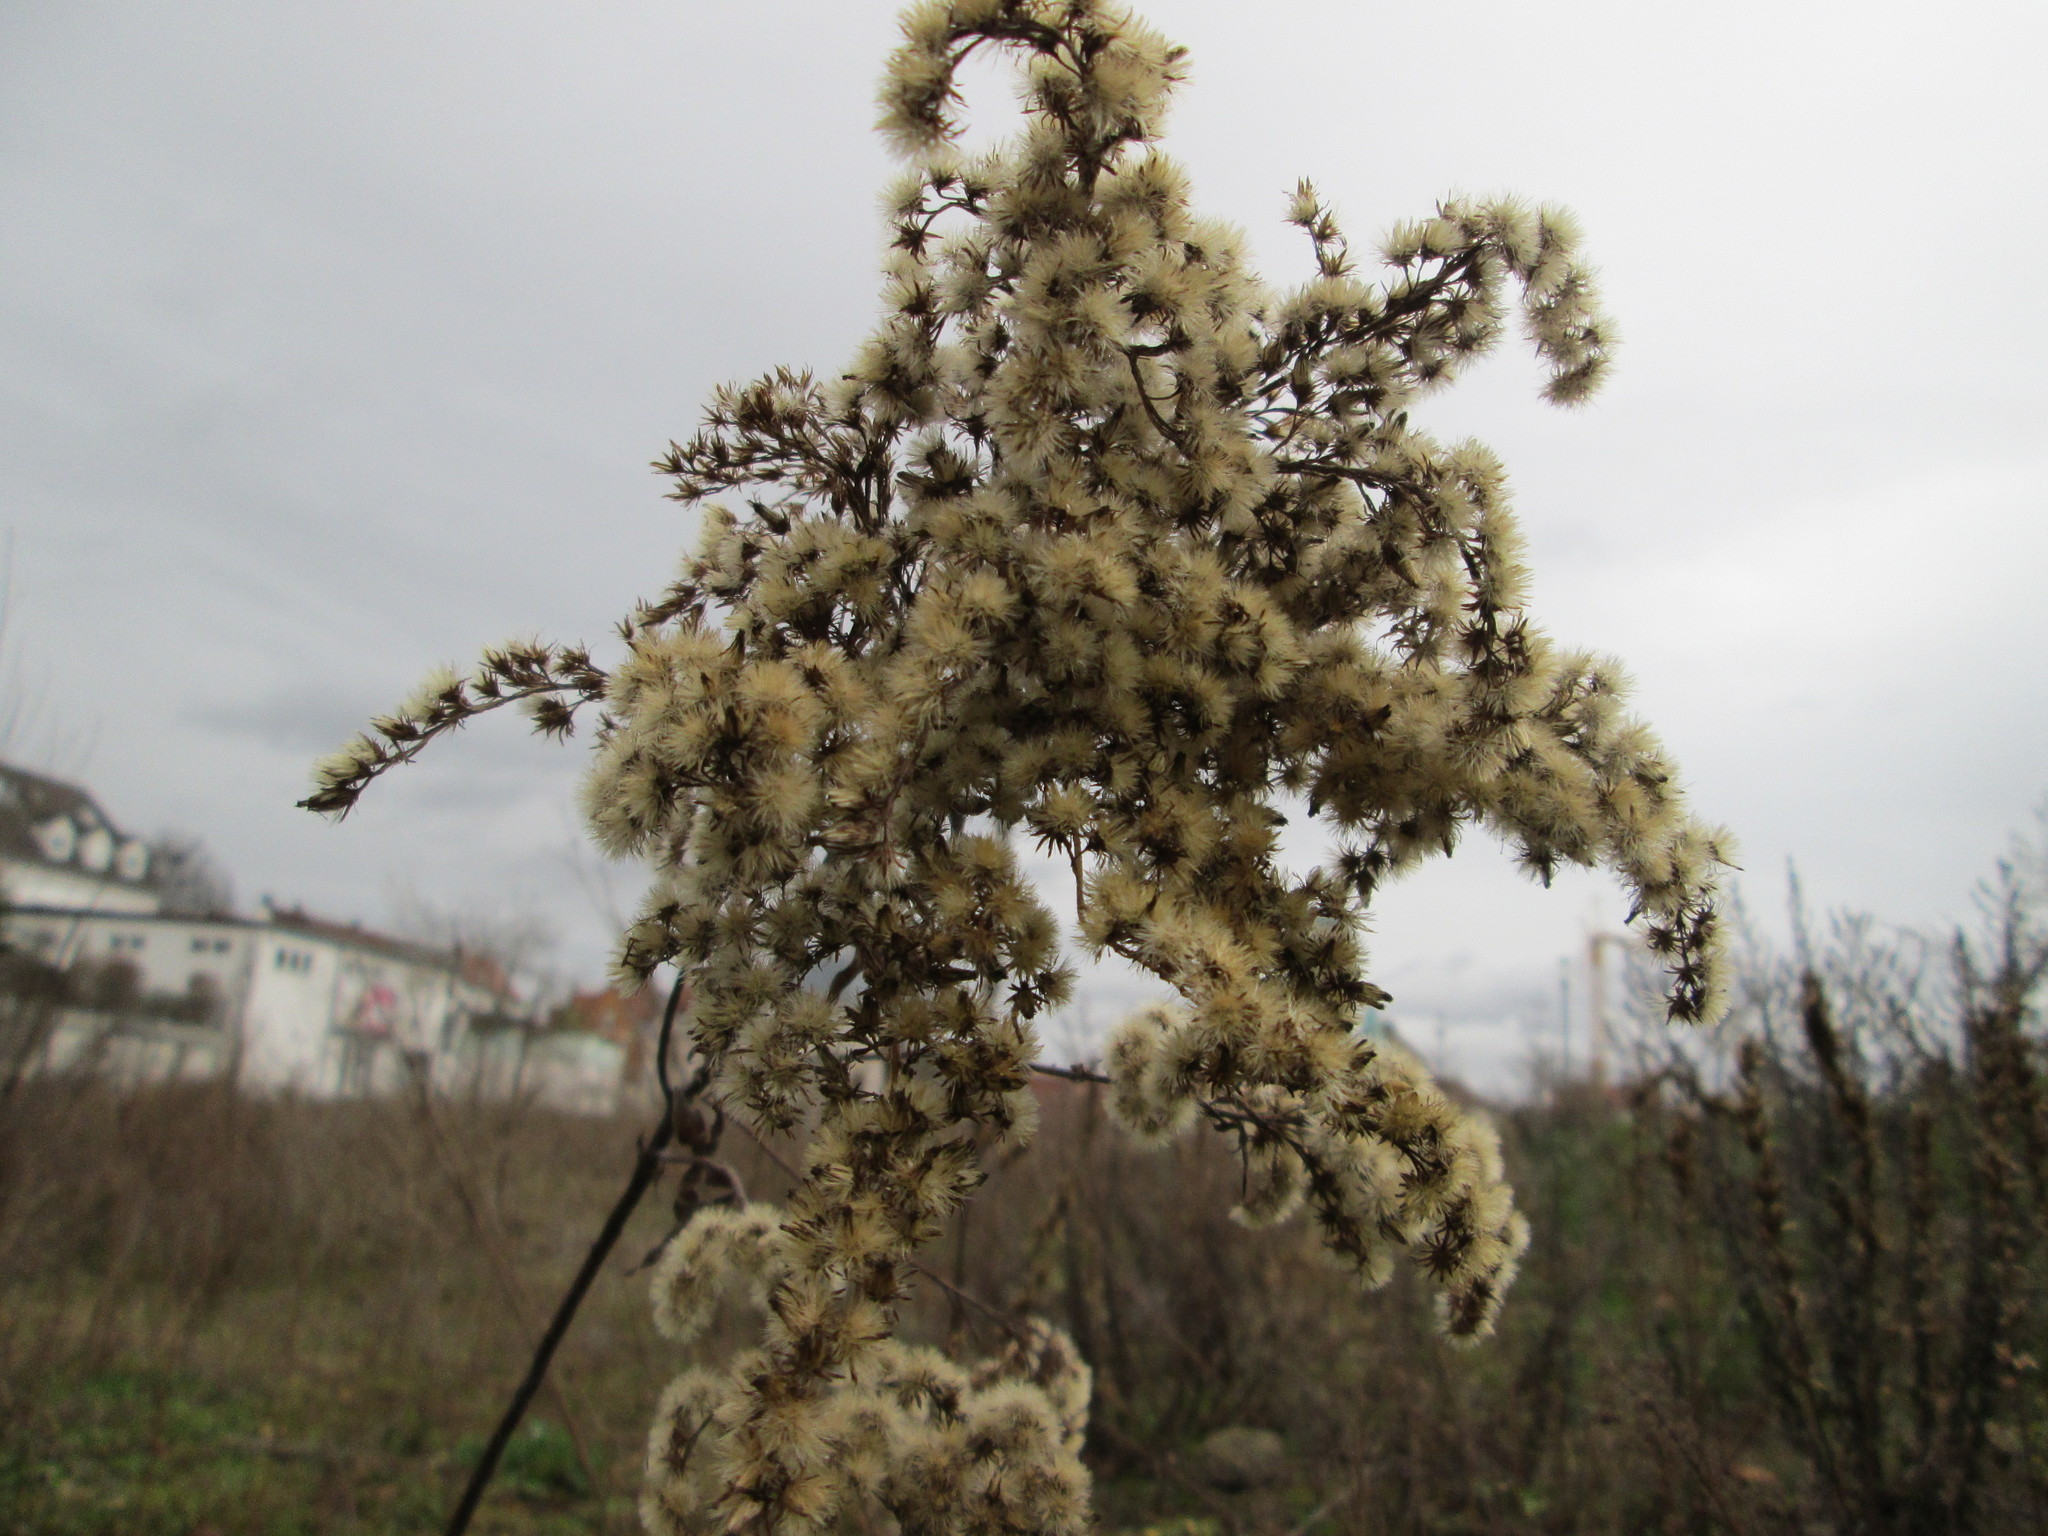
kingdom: Plantae
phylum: Tracheophyta
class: Magnoliopsida
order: Asterales
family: Asteraceae
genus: Solidago
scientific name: Solidago
